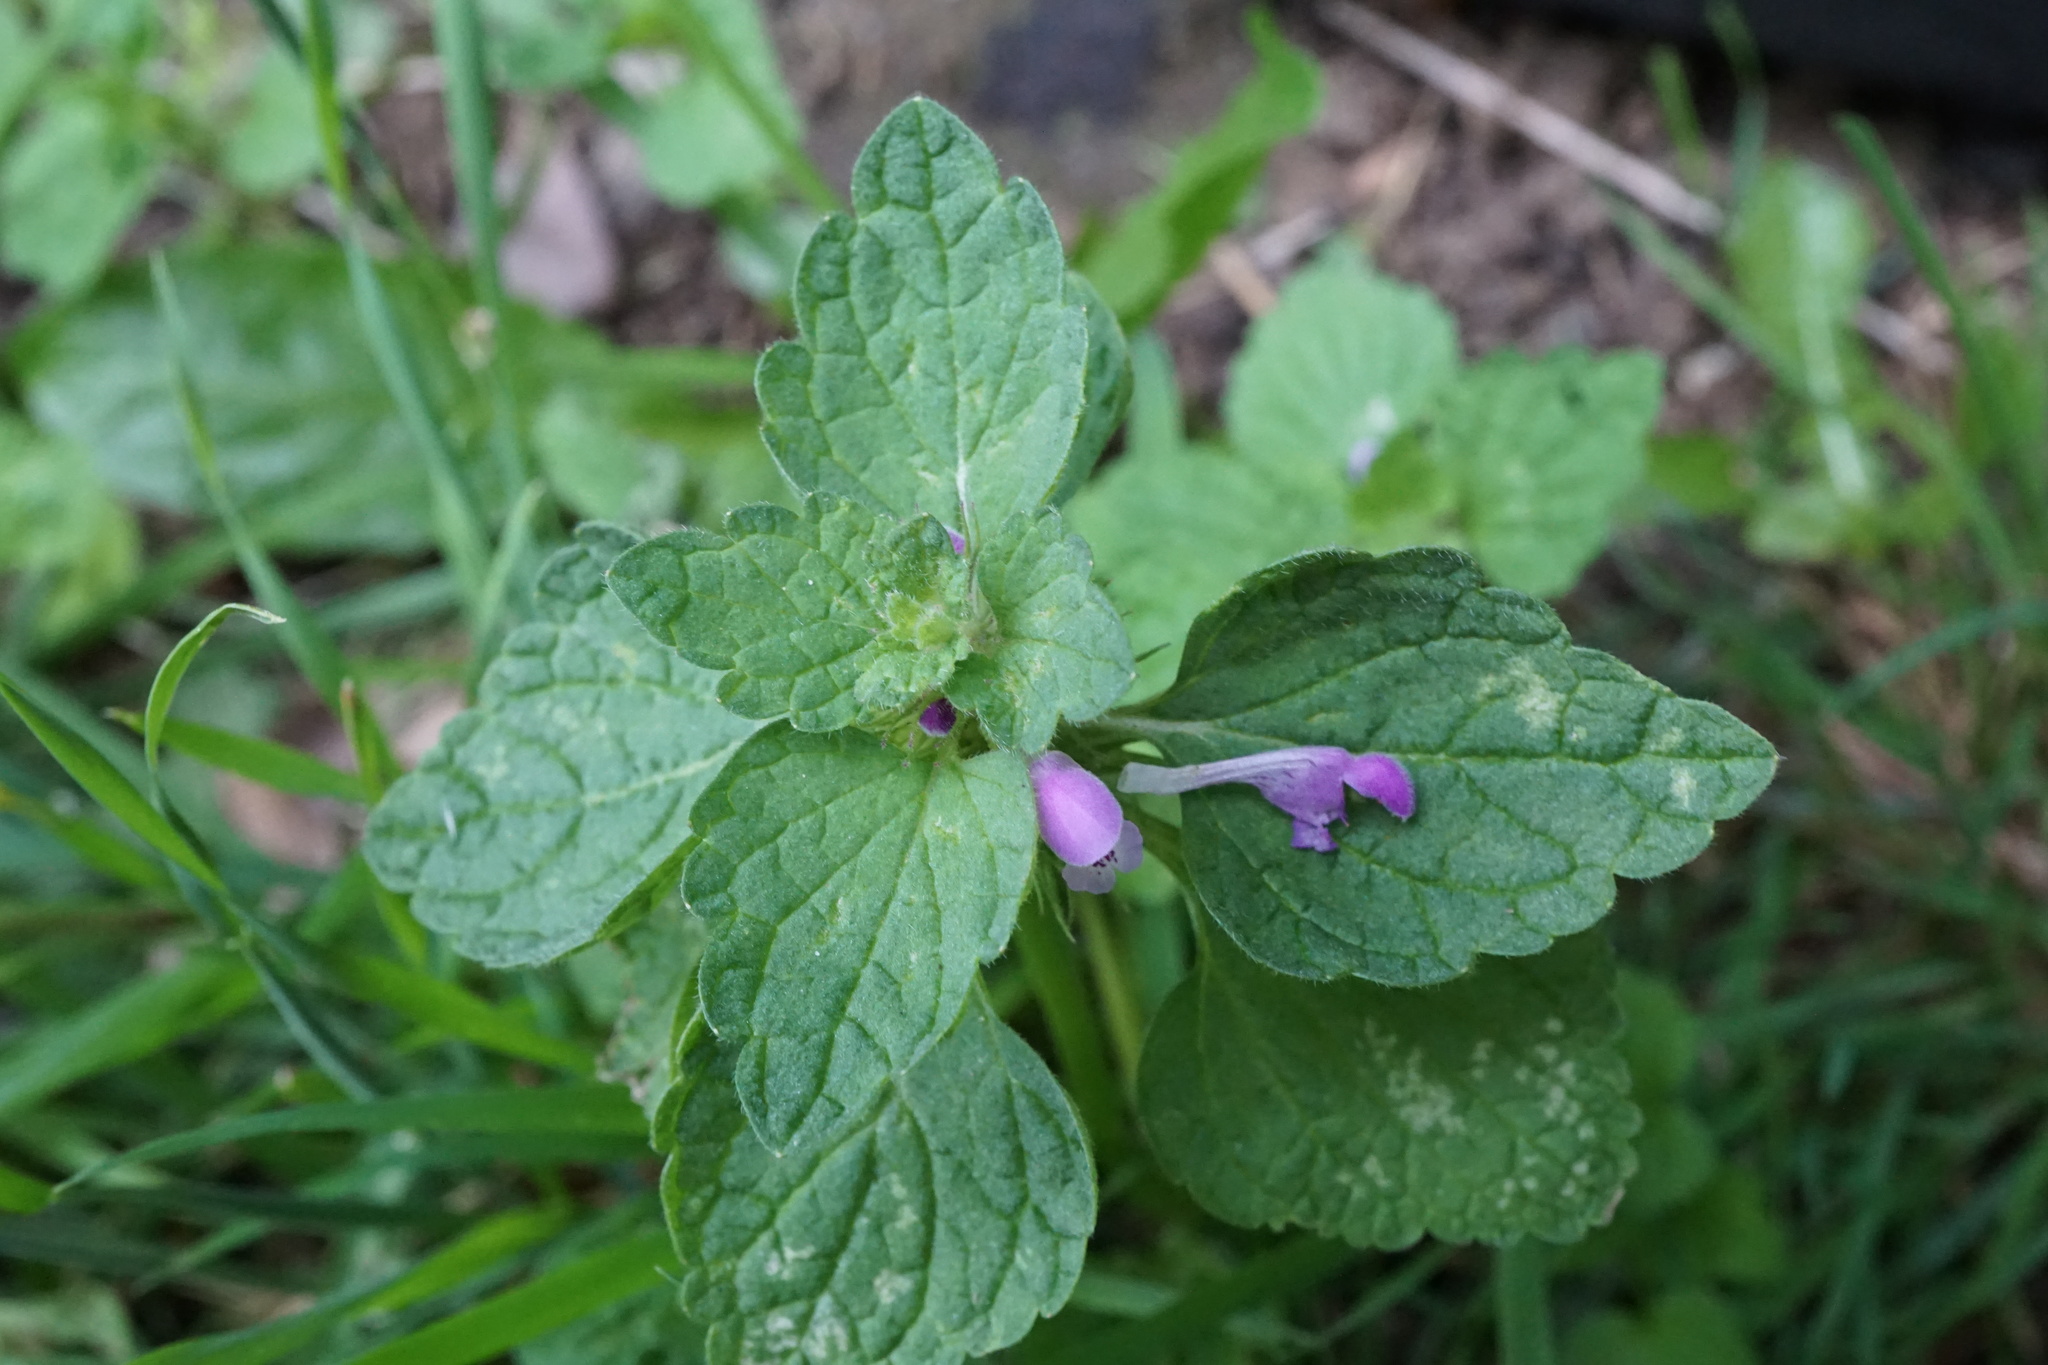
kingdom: Plantae
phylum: Tracheophyta
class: Magnoliopsida
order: Lamiales
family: Lamiaceae
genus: Lamium
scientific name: Lamium purpureum
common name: Red dead-nettle
